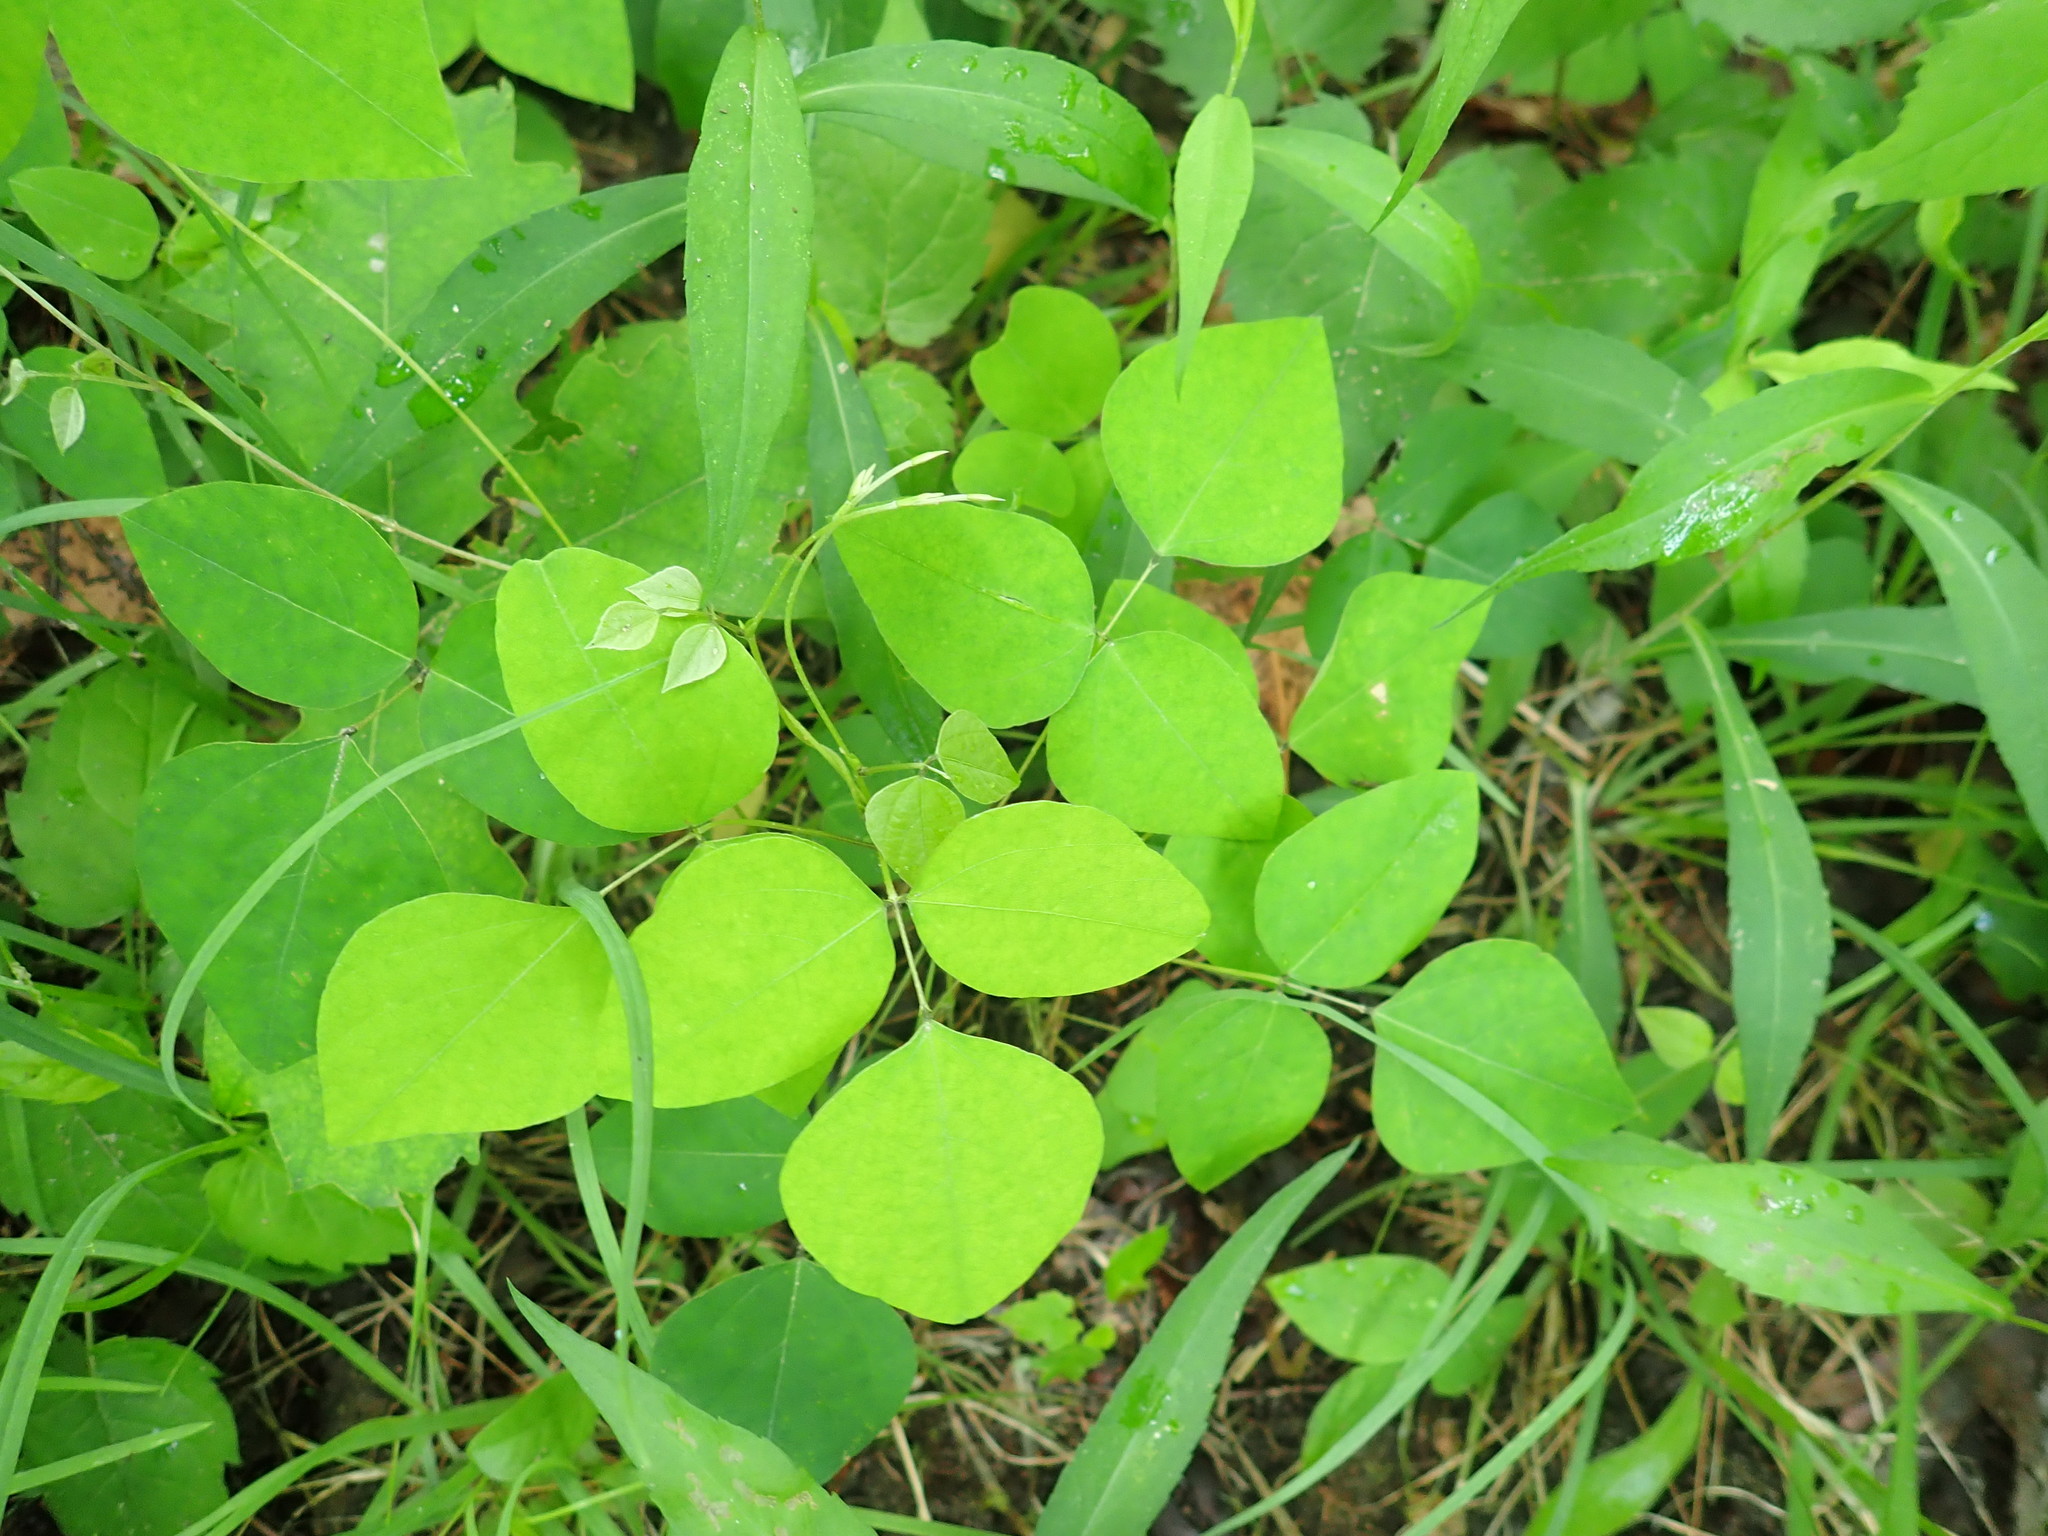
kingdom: Plantae
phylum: Tracheophyta
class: Magnoliopsida
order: Fabales
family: Fabaceae
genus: Amphicarpaea
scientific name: Amphicarpaea bracteata
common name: American hog peanut
